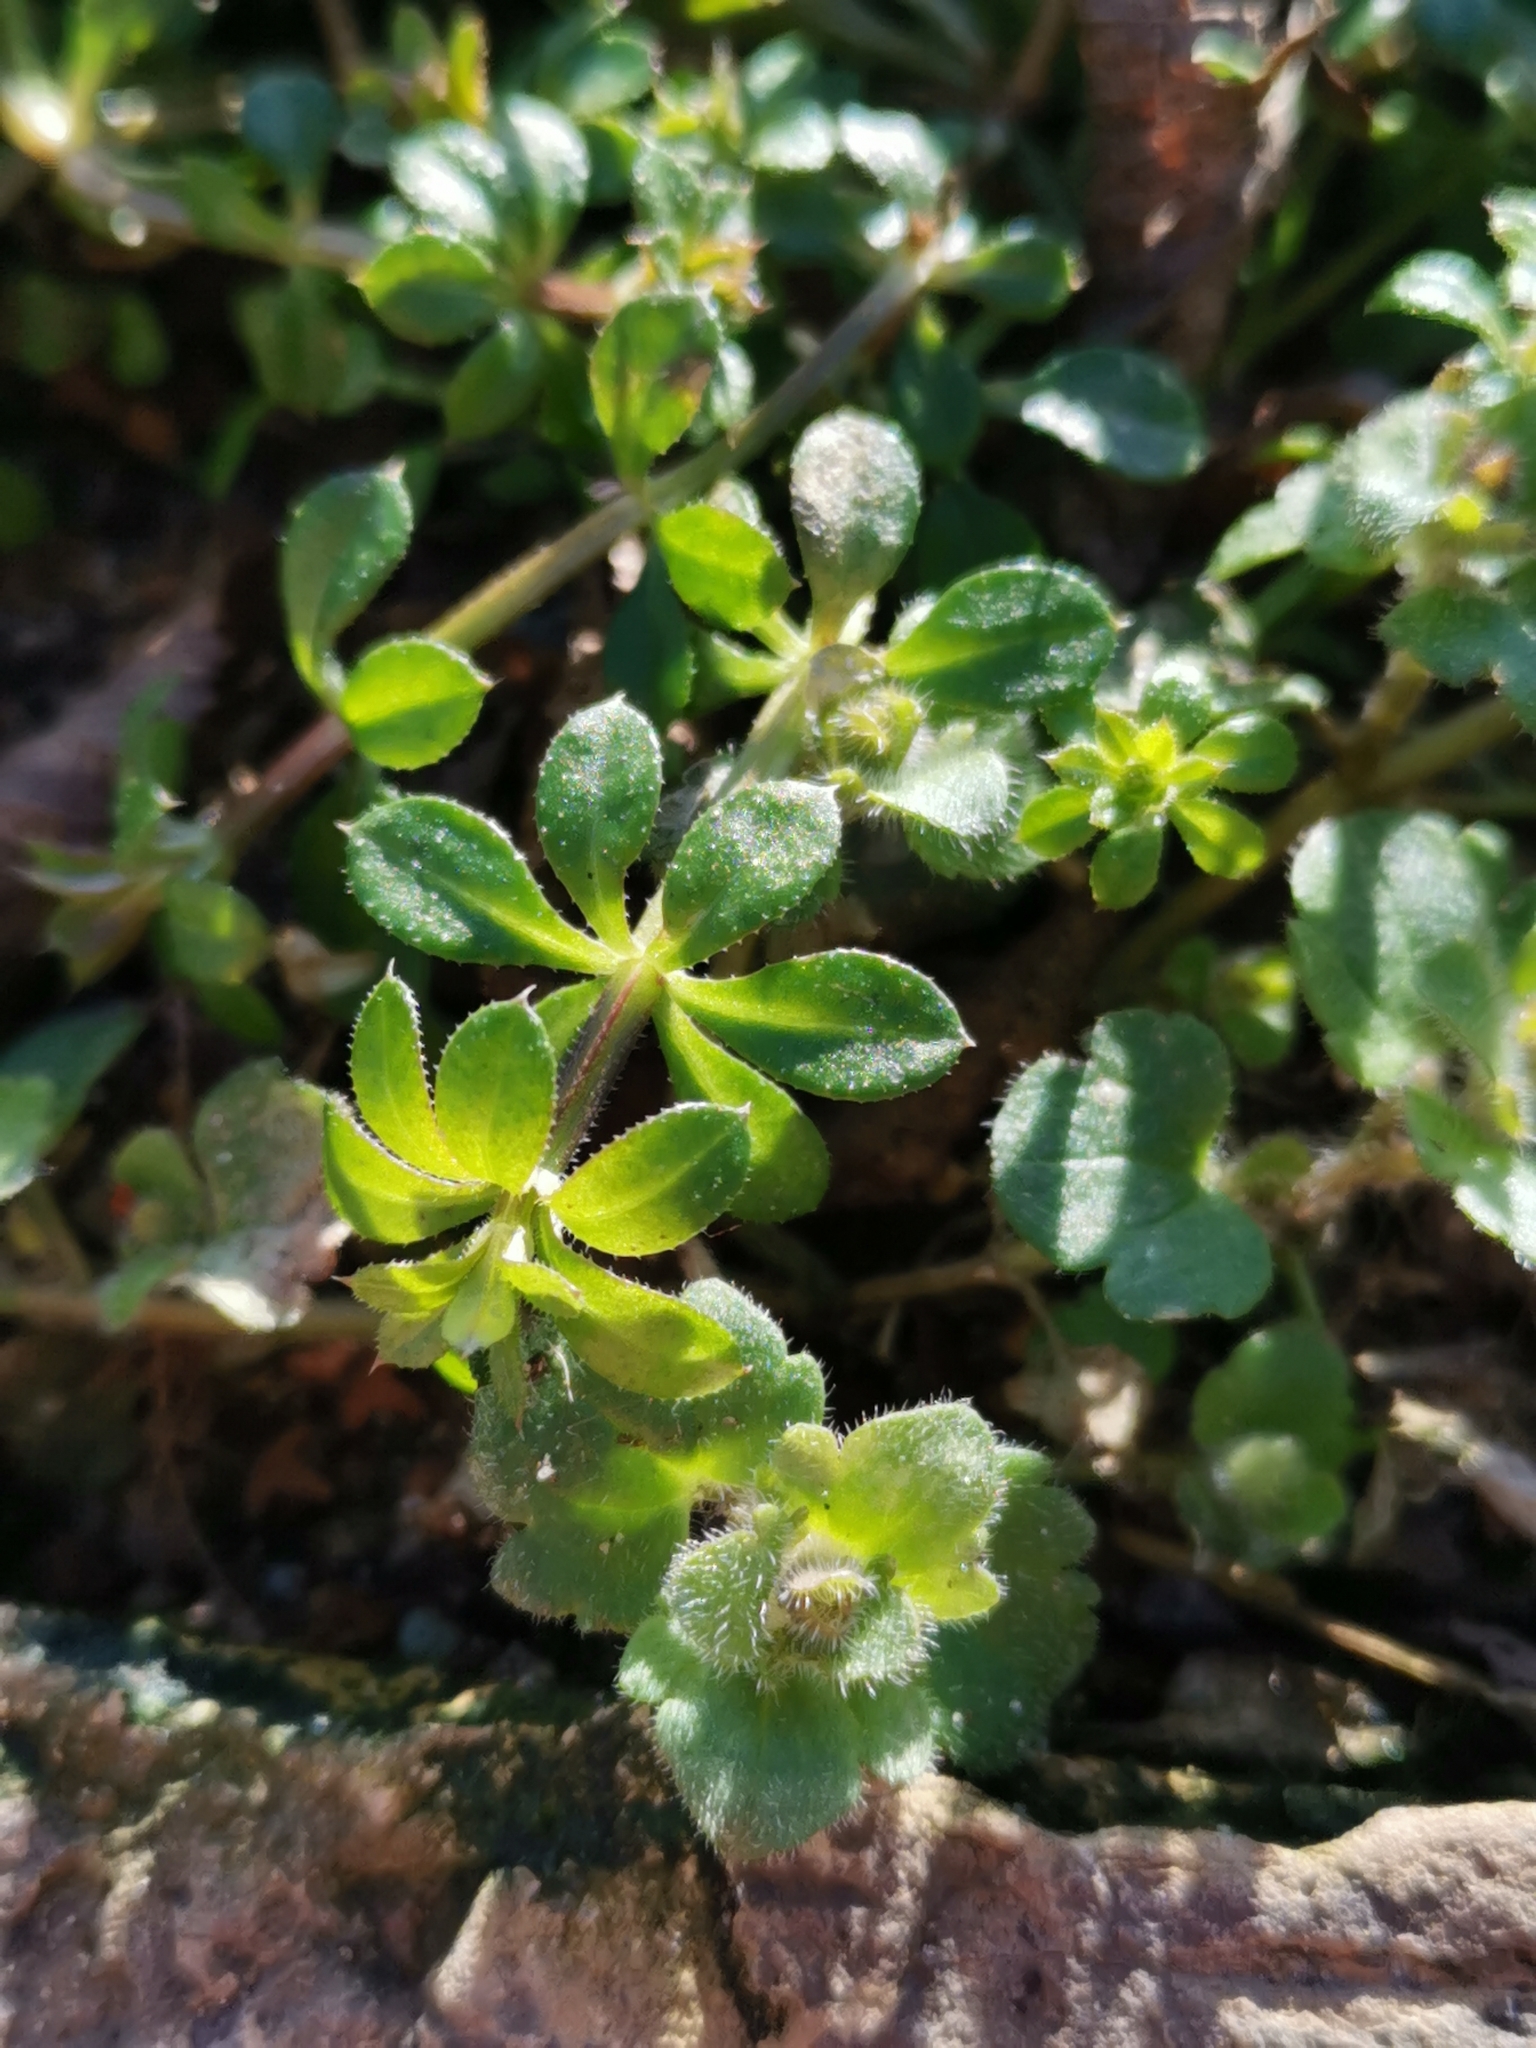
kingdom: Plantae
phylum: Tracheophyta
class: Magnoliopsida
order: Gentianales
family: Rubiaceae
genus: Galium
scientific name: Galium aparine
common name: Cleavers
